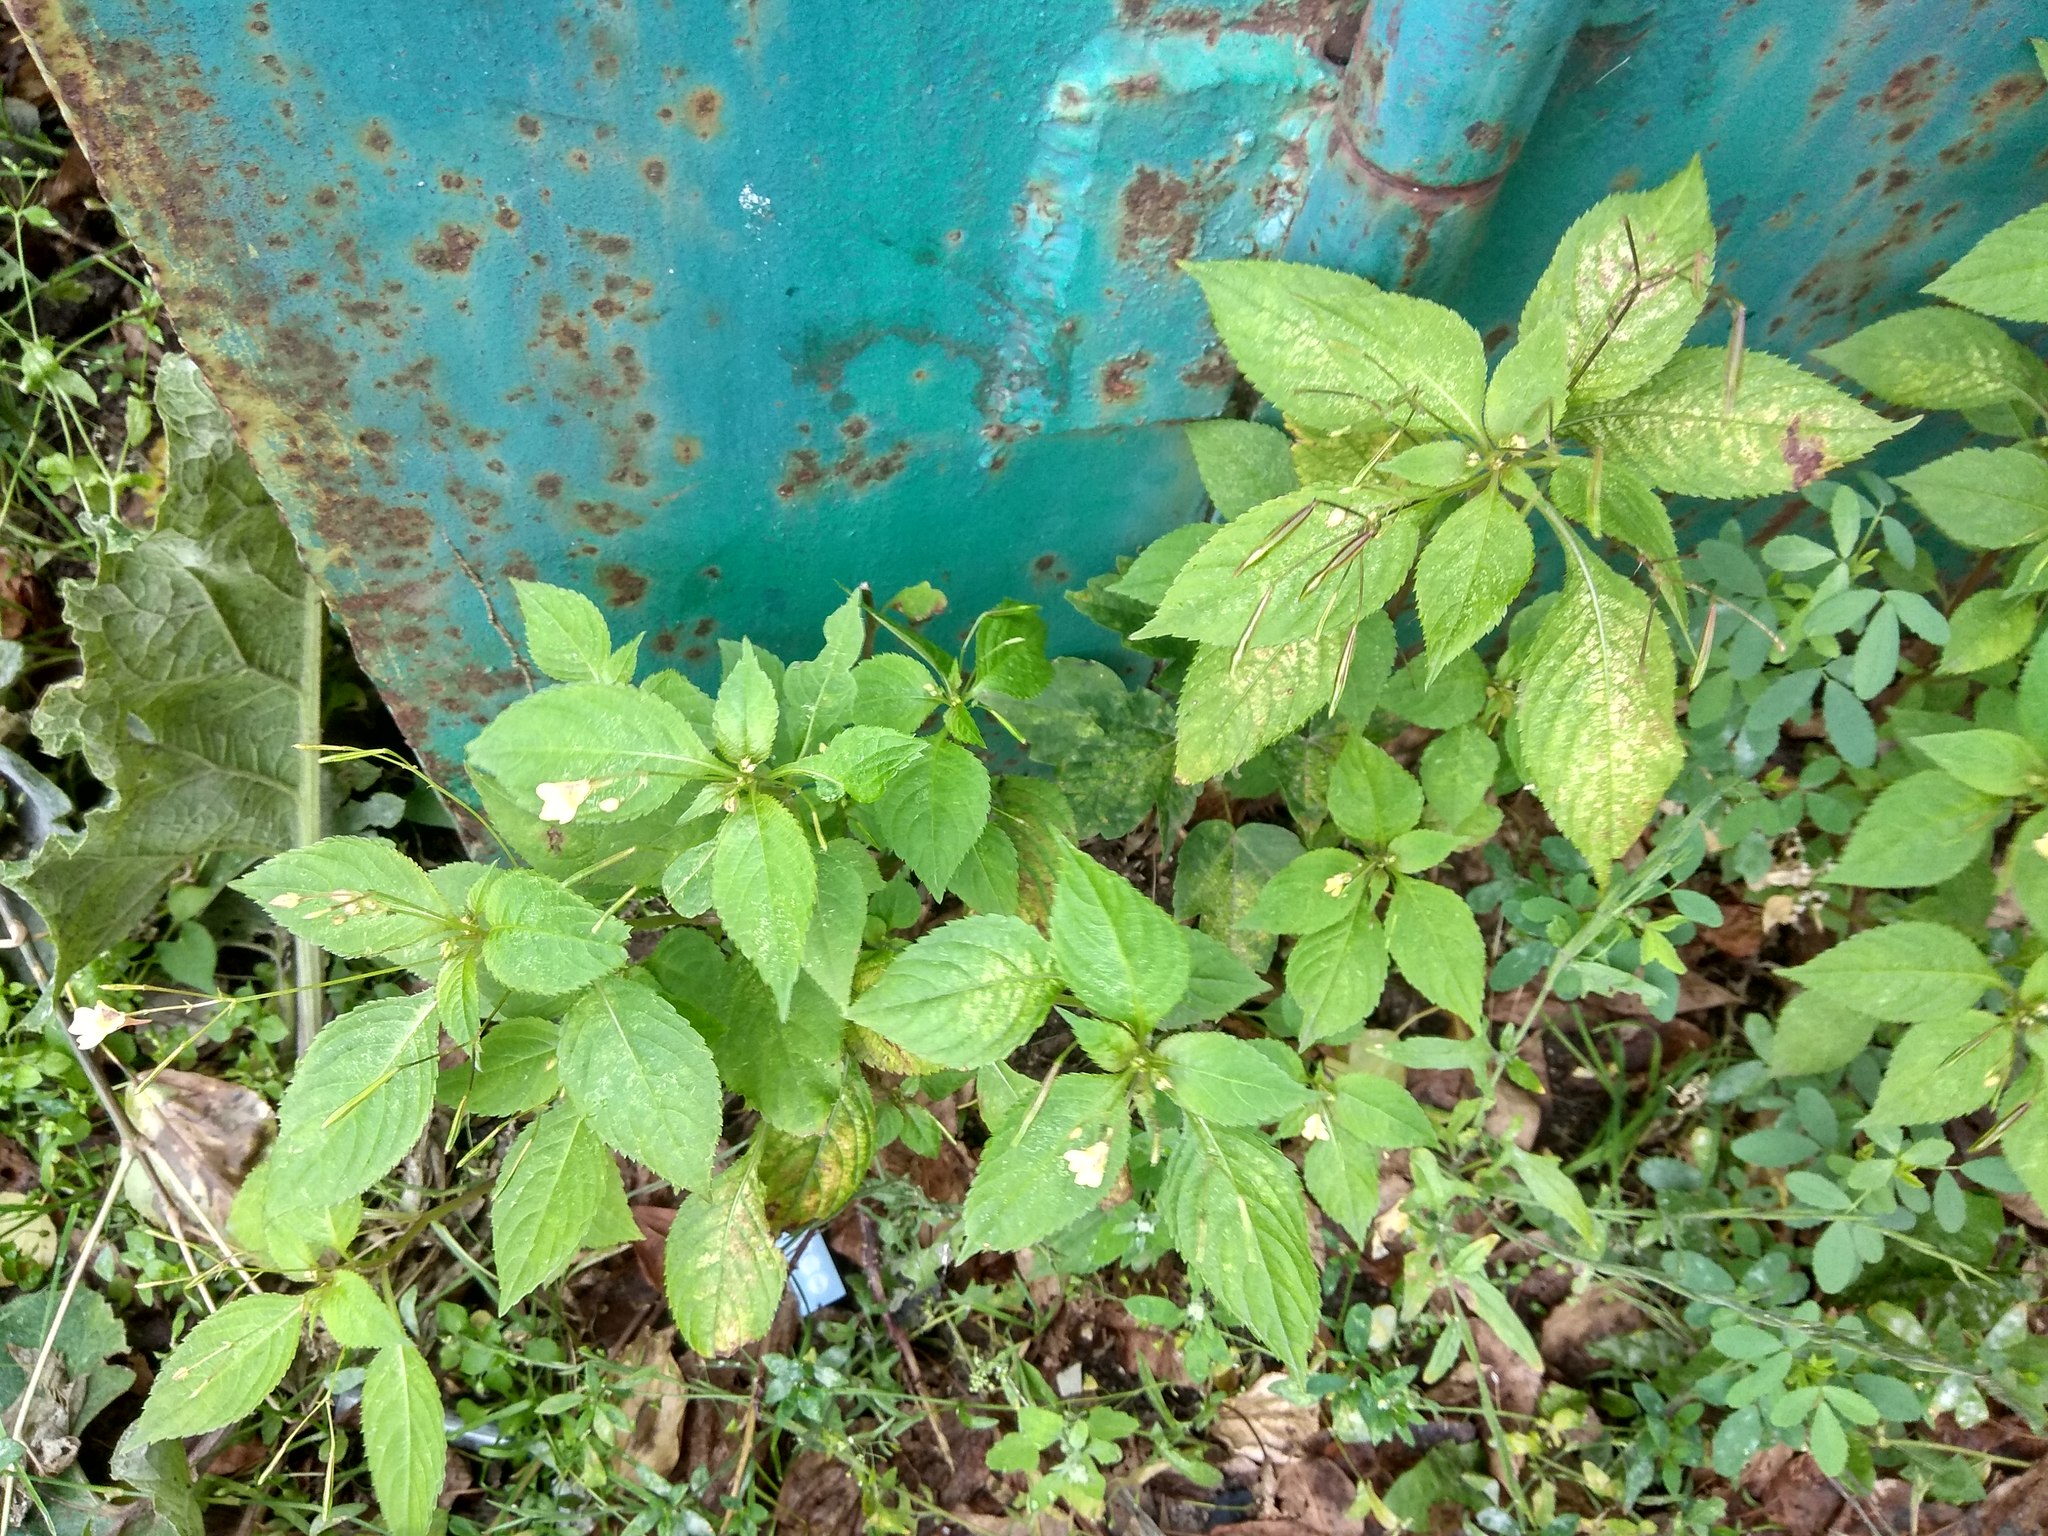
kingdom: Plantae
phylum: Tracheophyta
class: Magnoliopsida
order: Ericales
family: Balsaminaceae
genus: Impatiens
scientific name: Impatiens parviflora
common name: Small balsam
